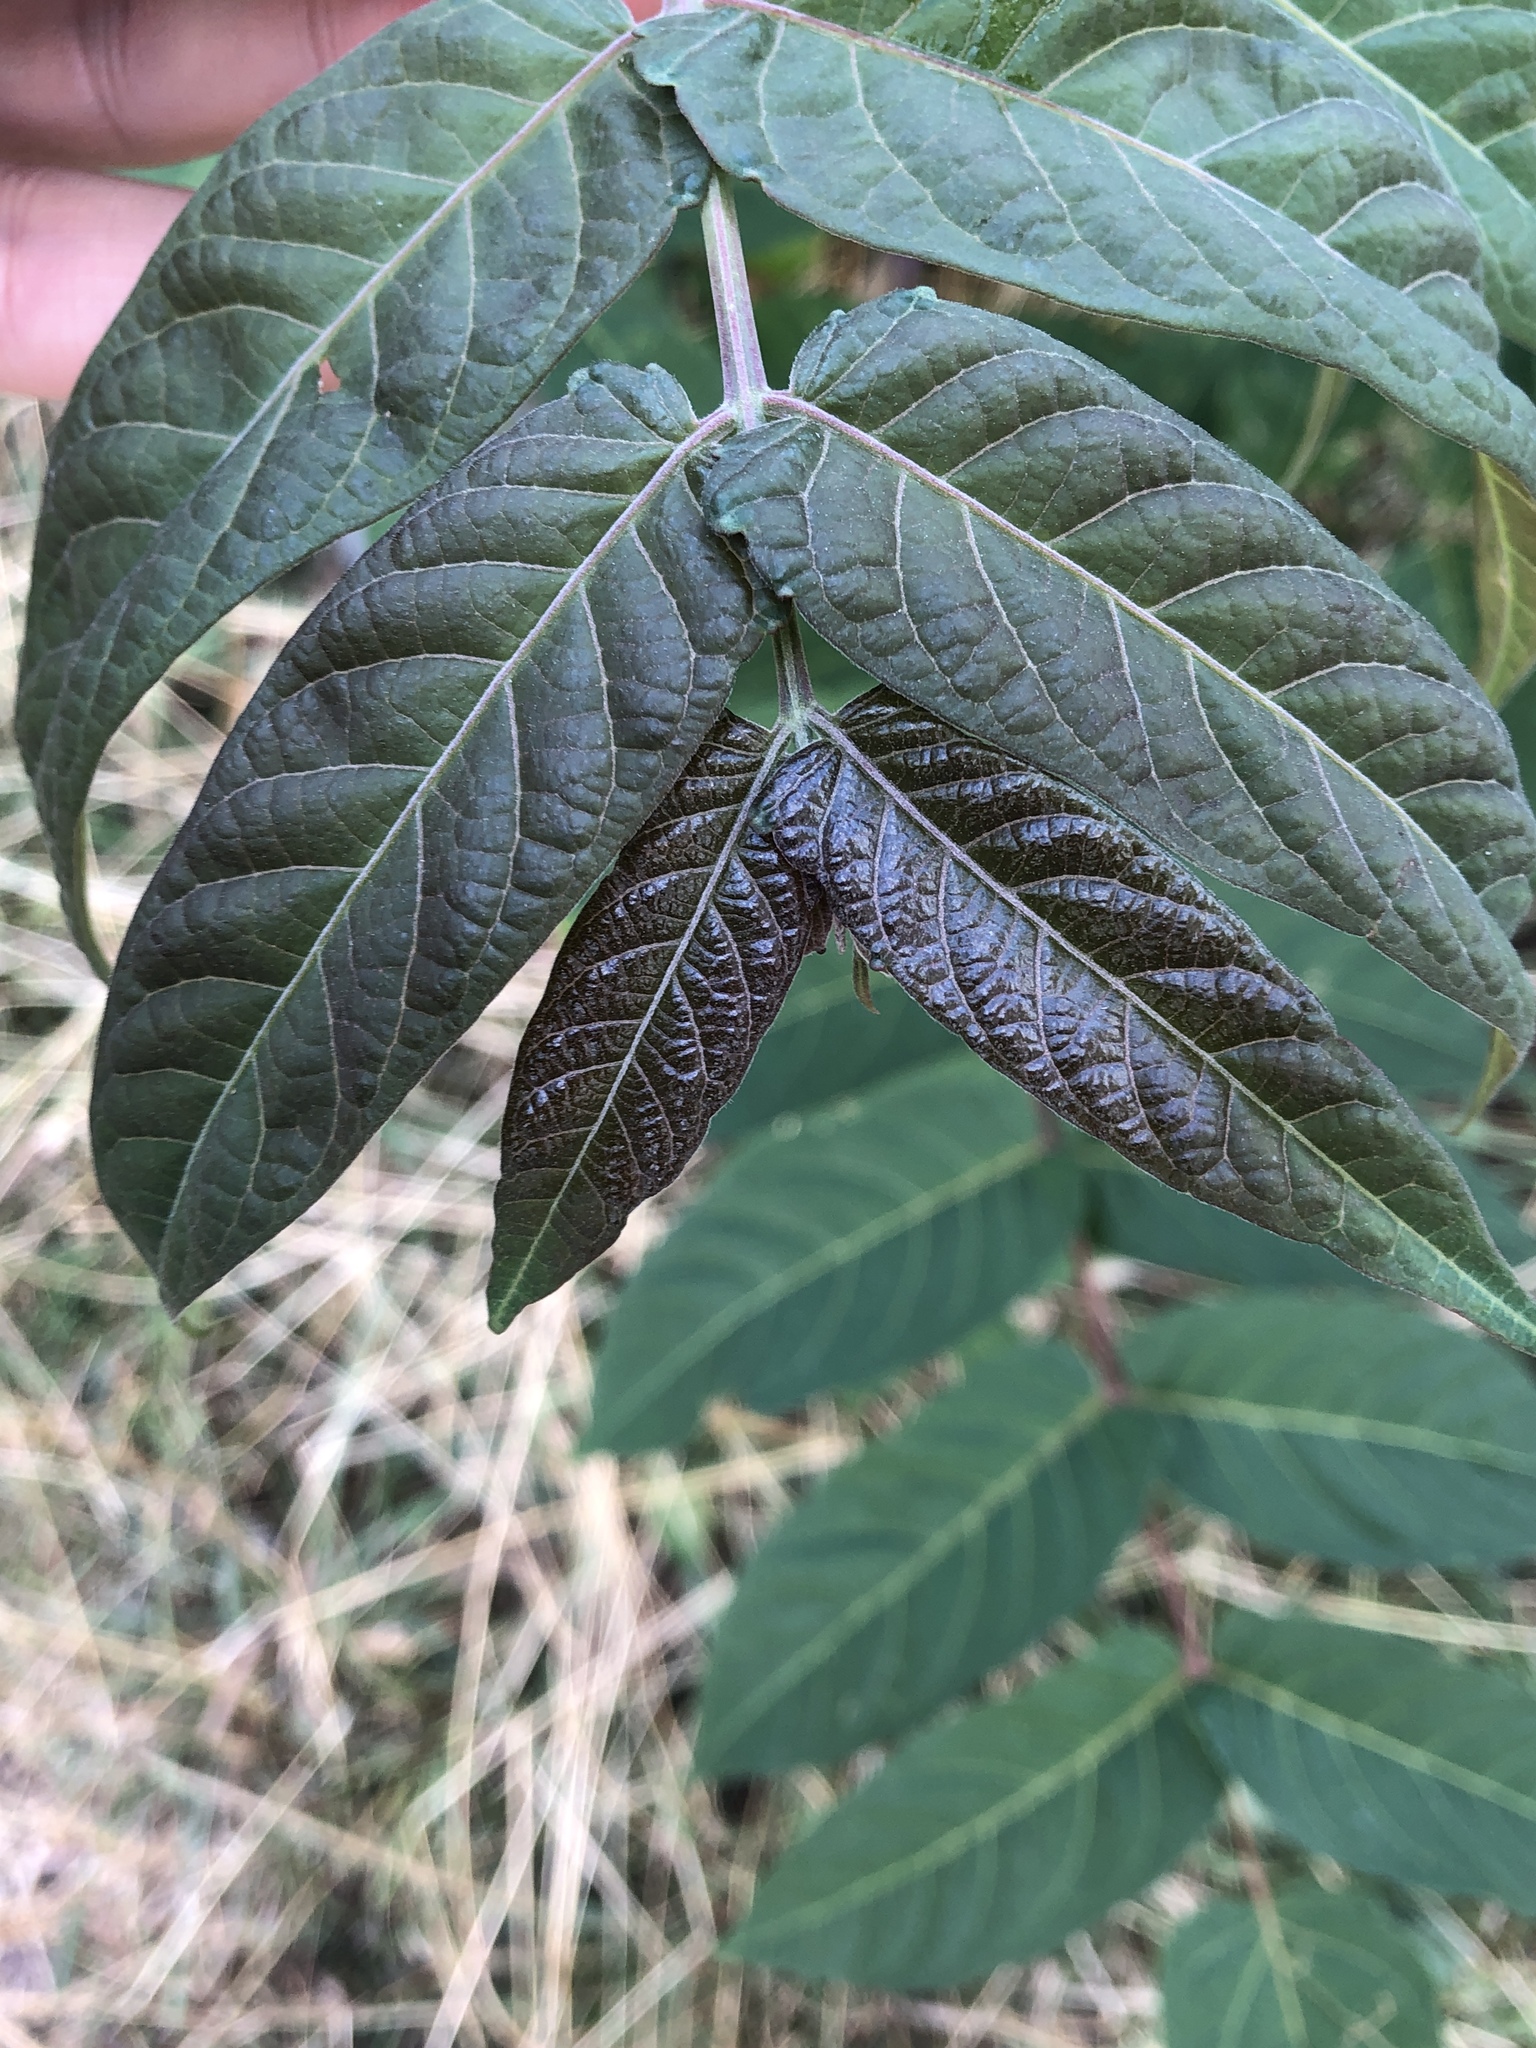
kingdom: Plantae
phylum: Tracheophyta
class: Magnoliopsida
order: Sapindales
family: Simaroubaceae
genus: Ailanthus
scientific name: Ailanthus altissima
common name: Tree-of-heaven
